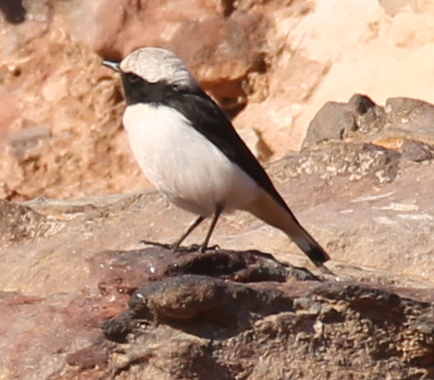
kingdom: Animalia
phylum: Chordata
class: Aves
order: Passeriformes
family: Muscicapidae
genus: Oenanthe
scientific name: Oenanthe lugens
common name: Mourning wheatear
